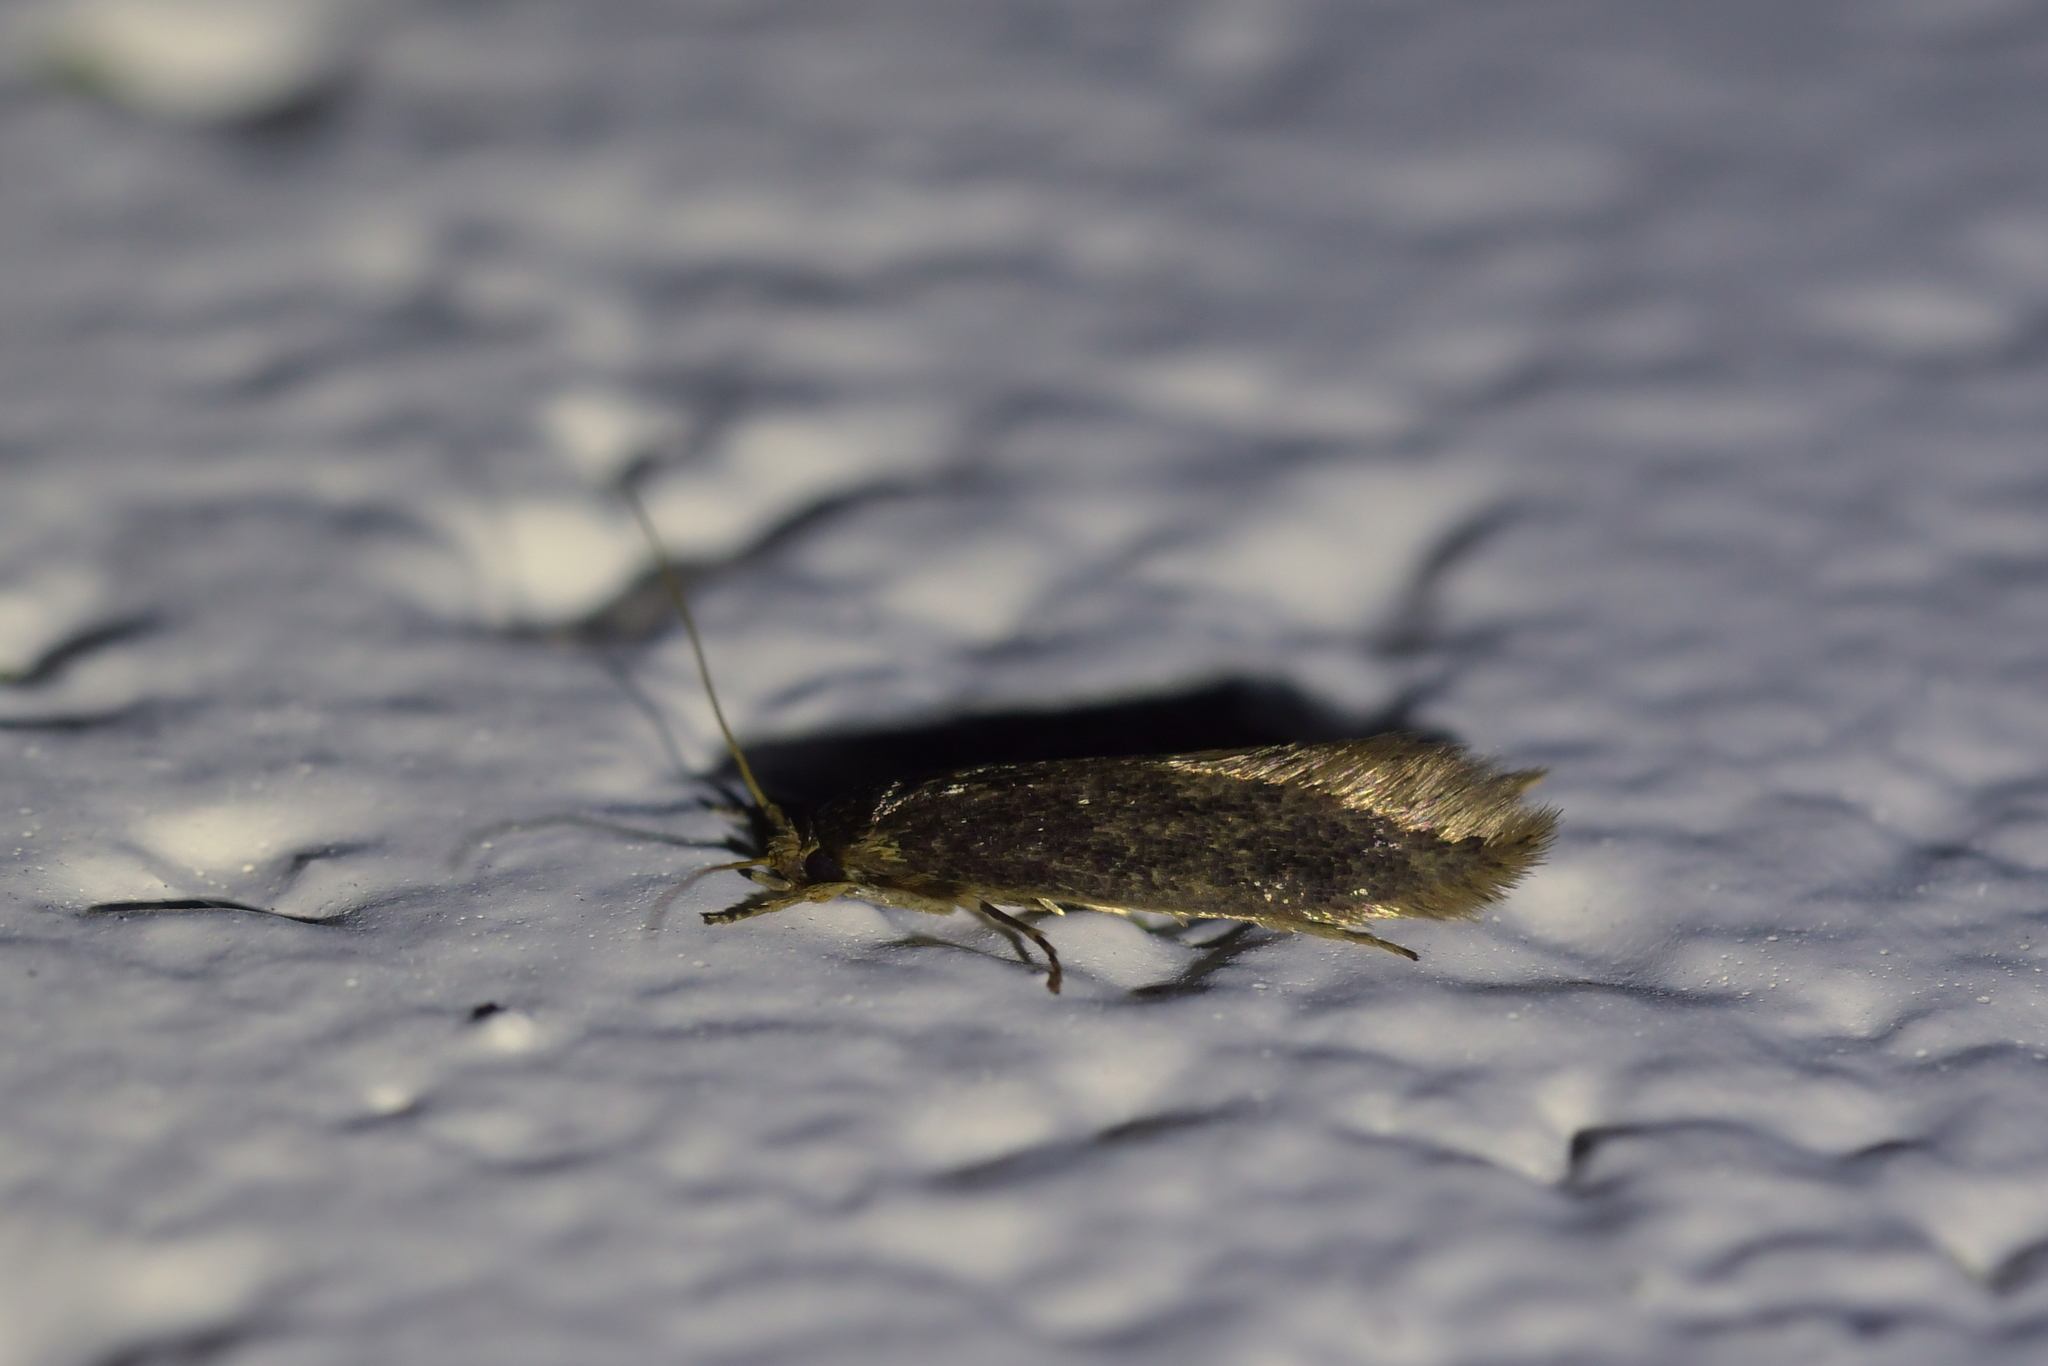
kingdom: Animalia
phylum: Arthropoda
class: Insecta
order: Lepidoptera
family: Tineidae
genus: Opogona
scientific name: Opogona omoscopa
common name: Moth
